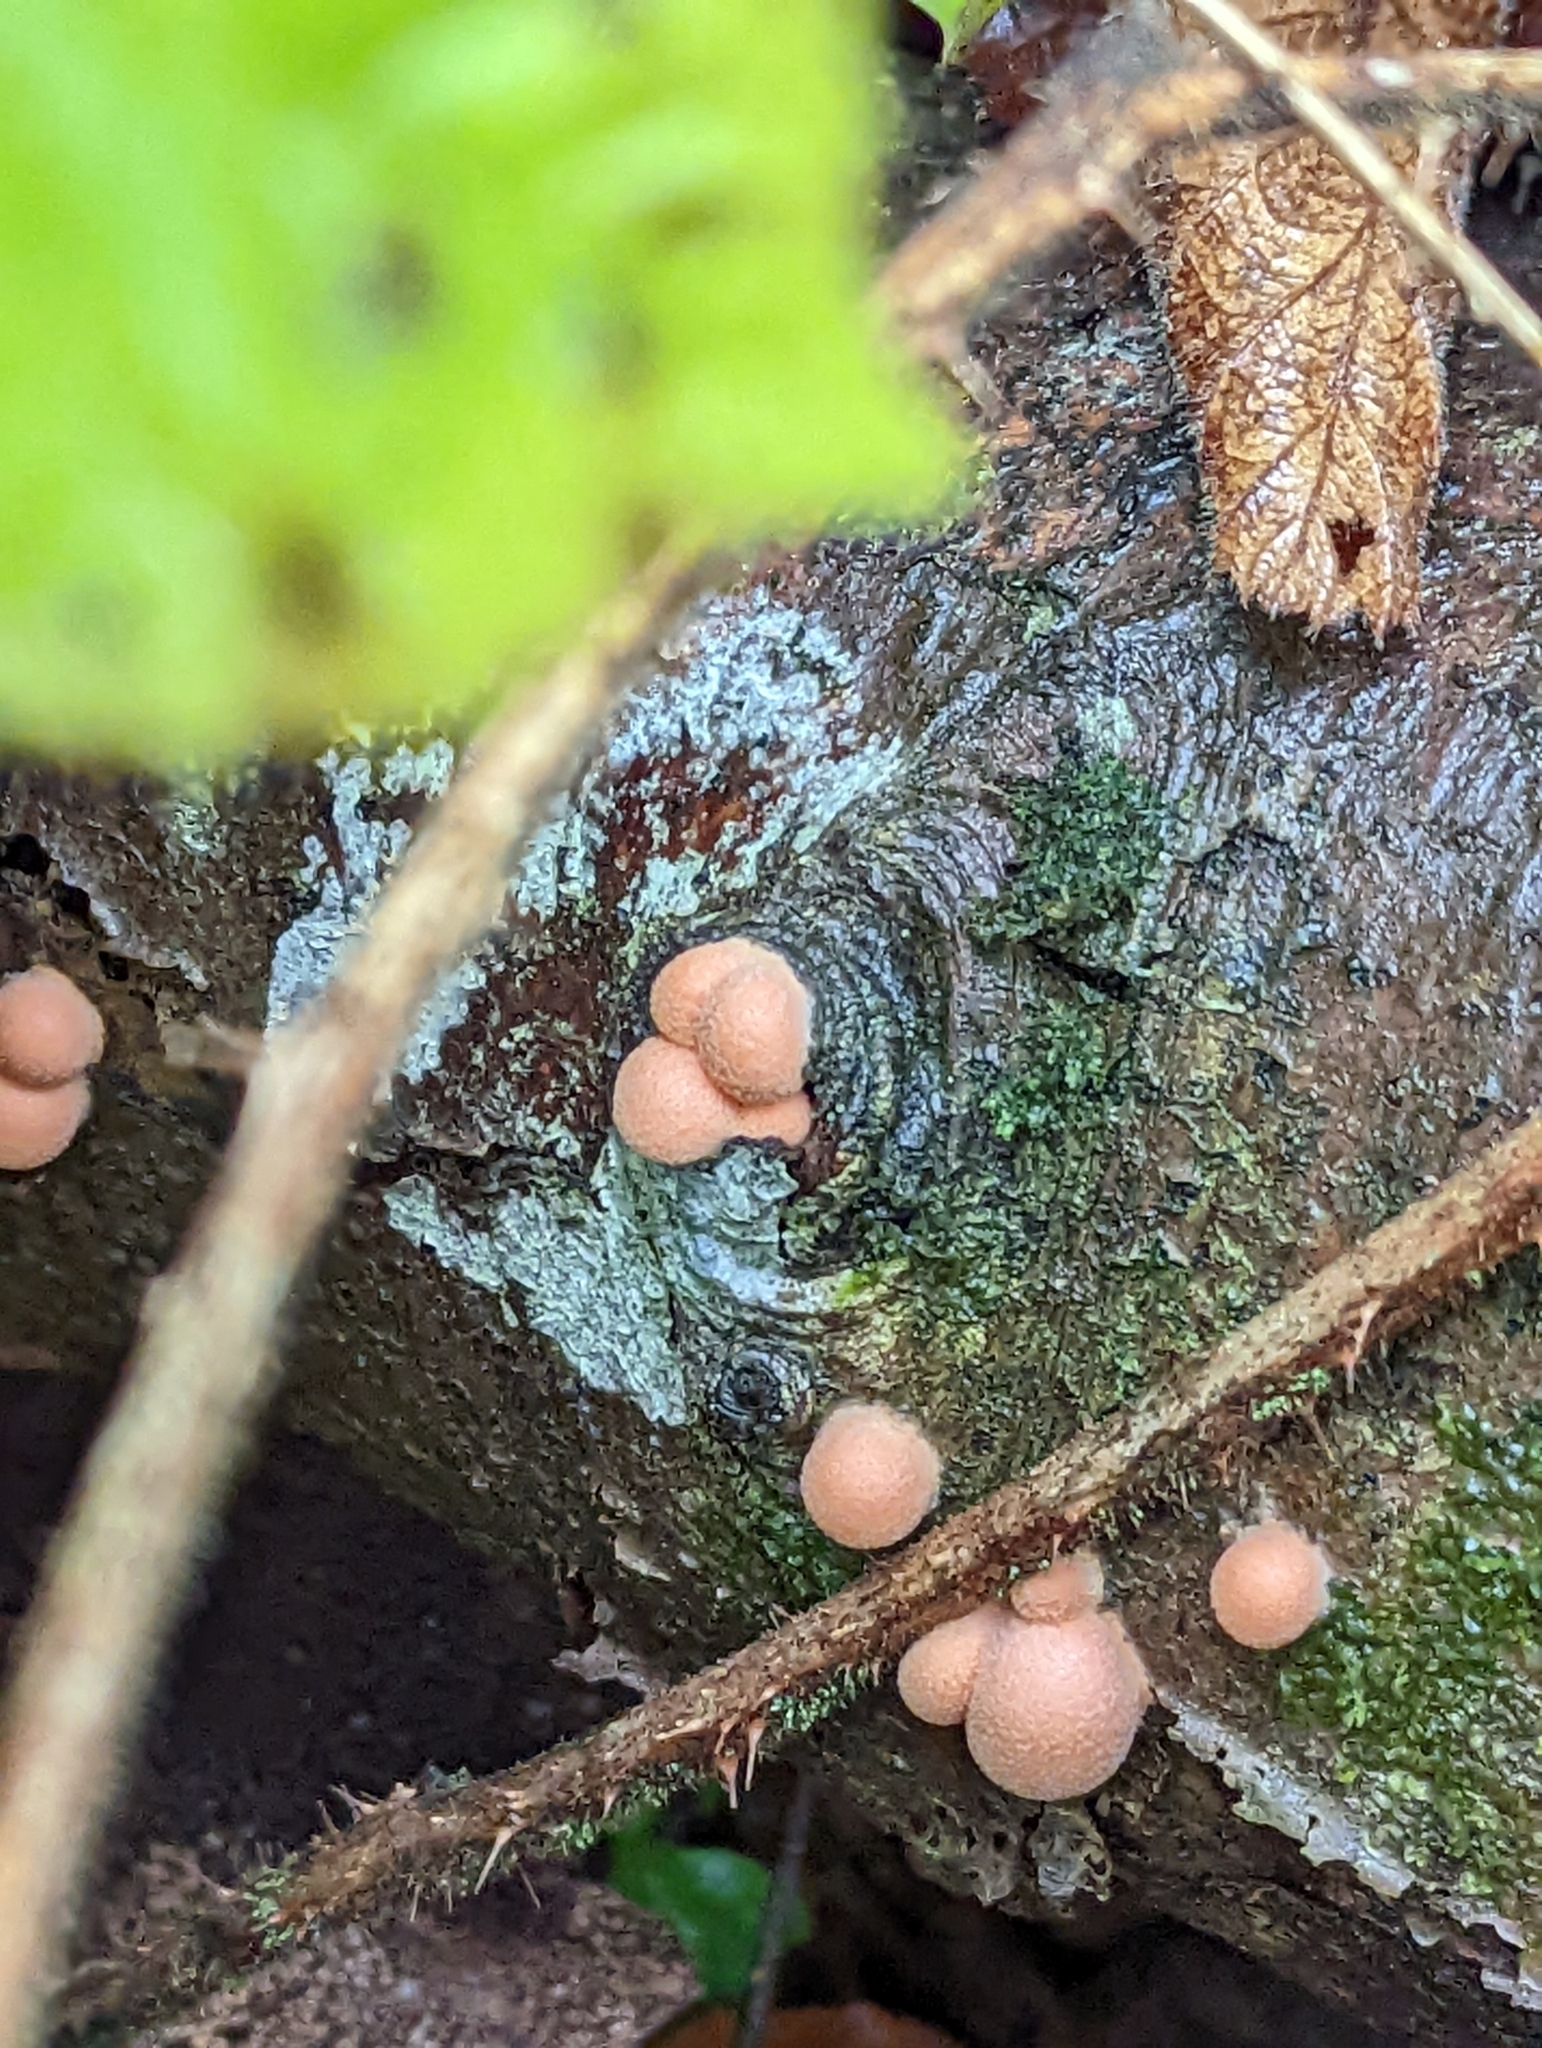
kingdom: Protozoa
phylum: Mycetozoa
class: Myxomycetes
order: Cribrariales
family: Tubiferaceae
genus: Lycogala
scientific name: Lycogala epidendrum
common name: Wolf's milk
